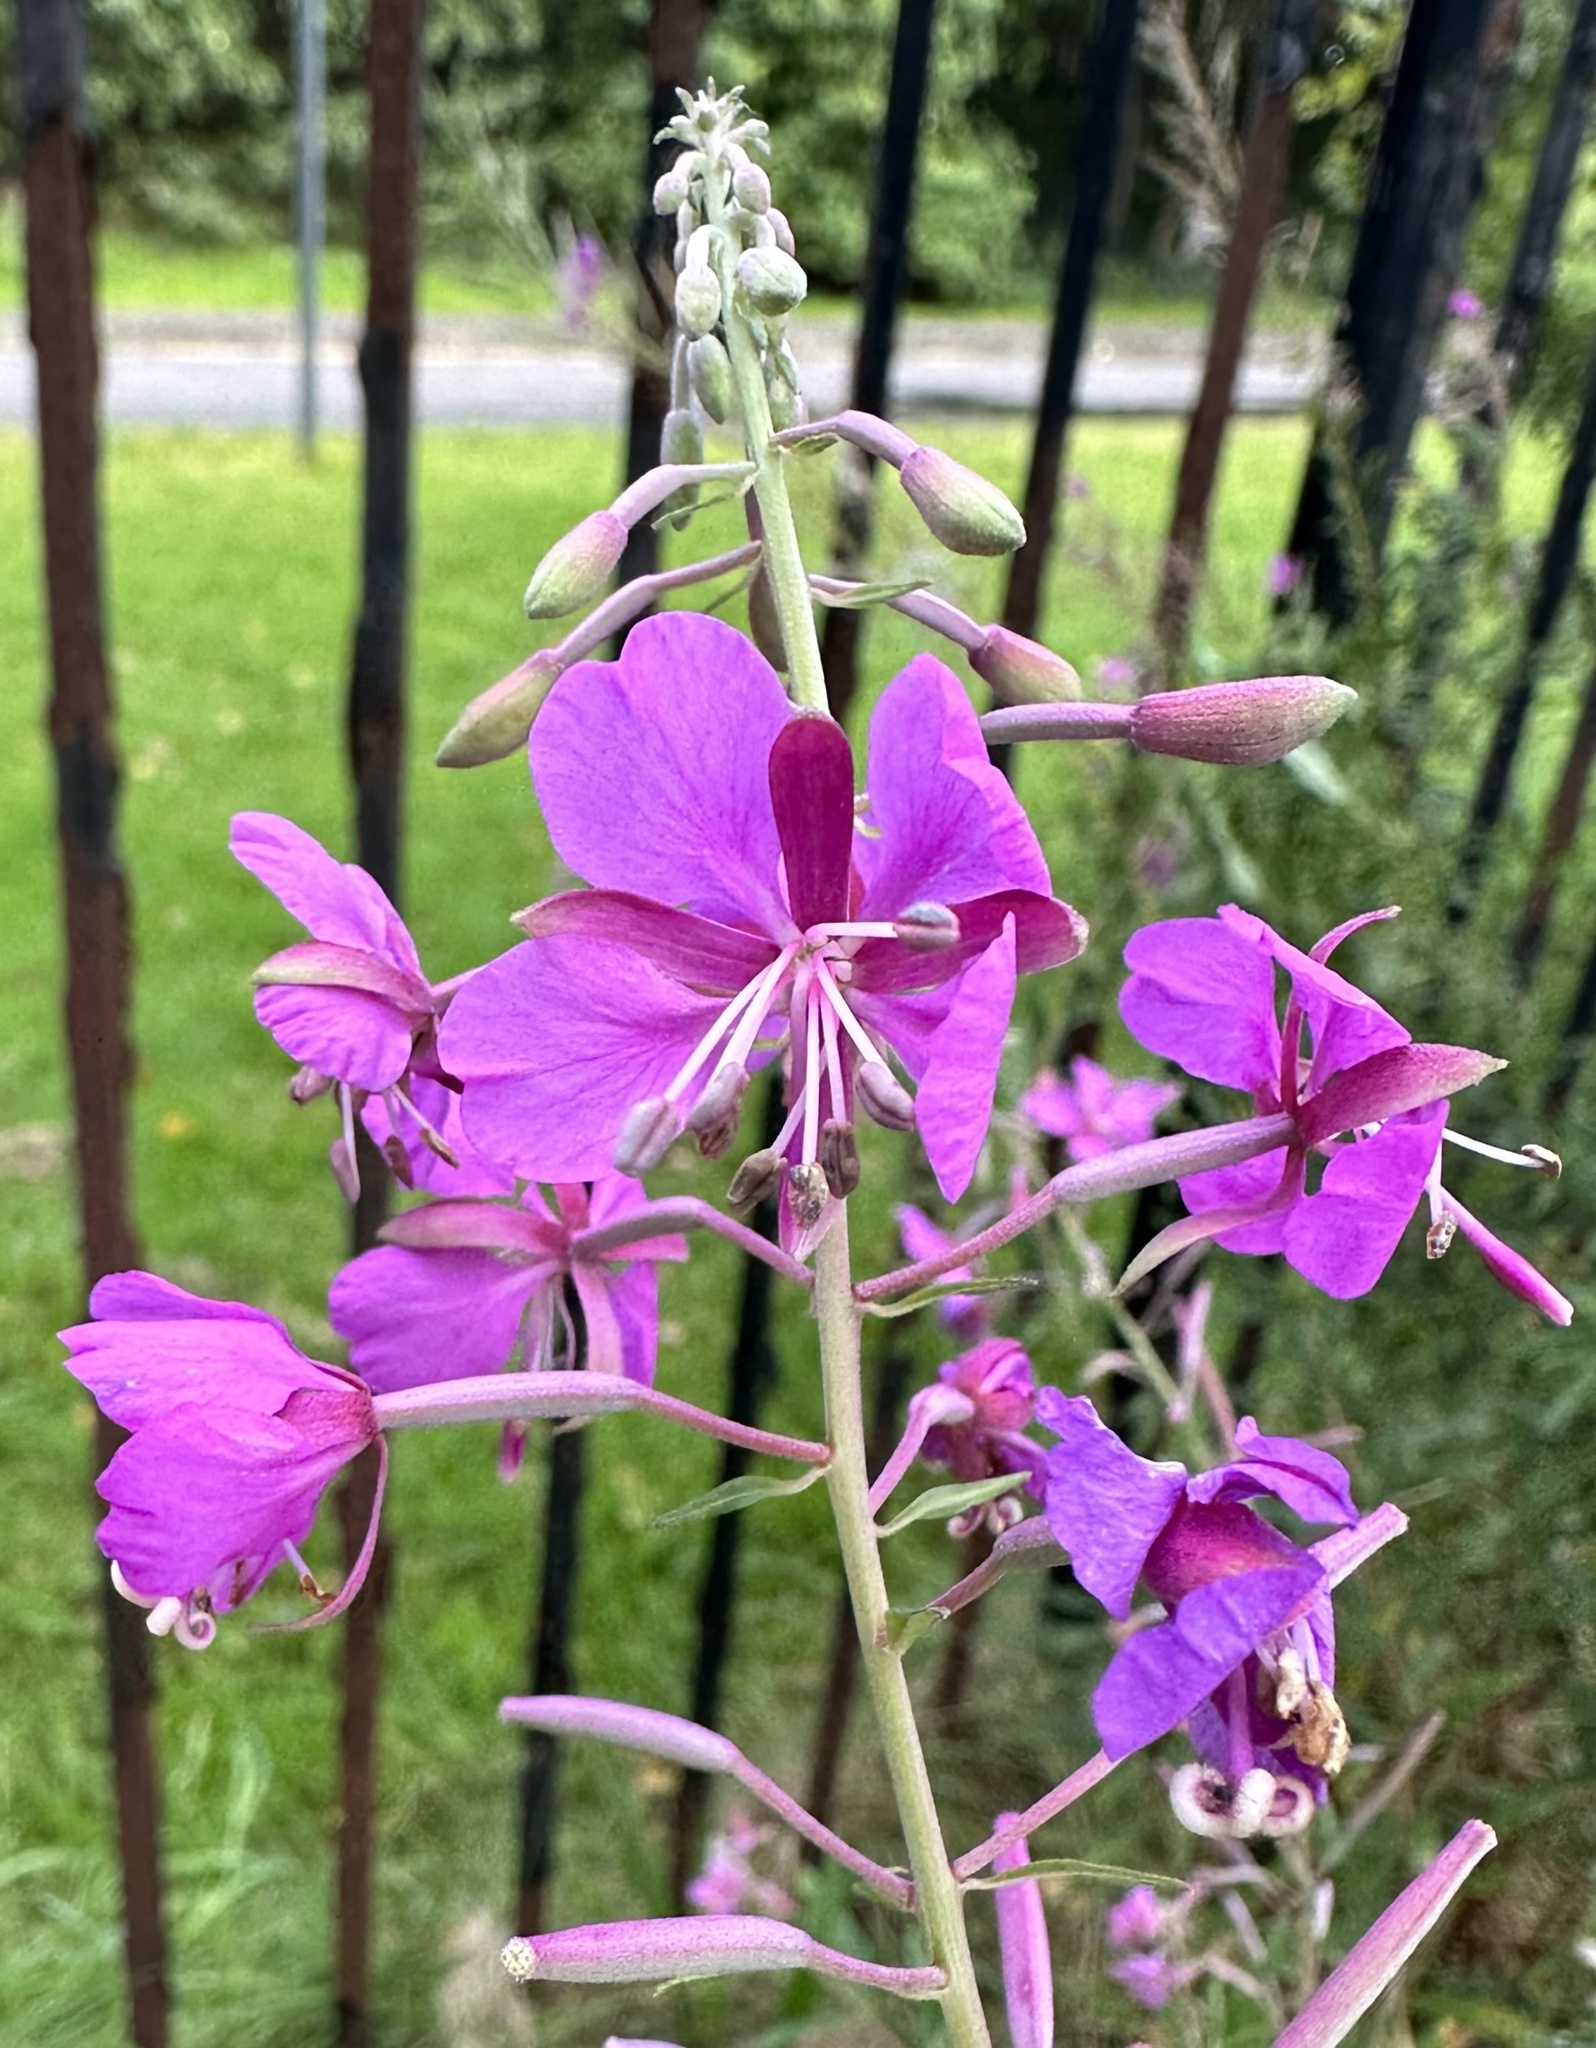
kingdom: Plantae
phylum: Tracheophyta
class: Magnoliopsida
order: Myrtales
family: Onagraceae
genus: Chamaenerion
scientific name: Chamaenerion angustifolium
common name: Fireweed
